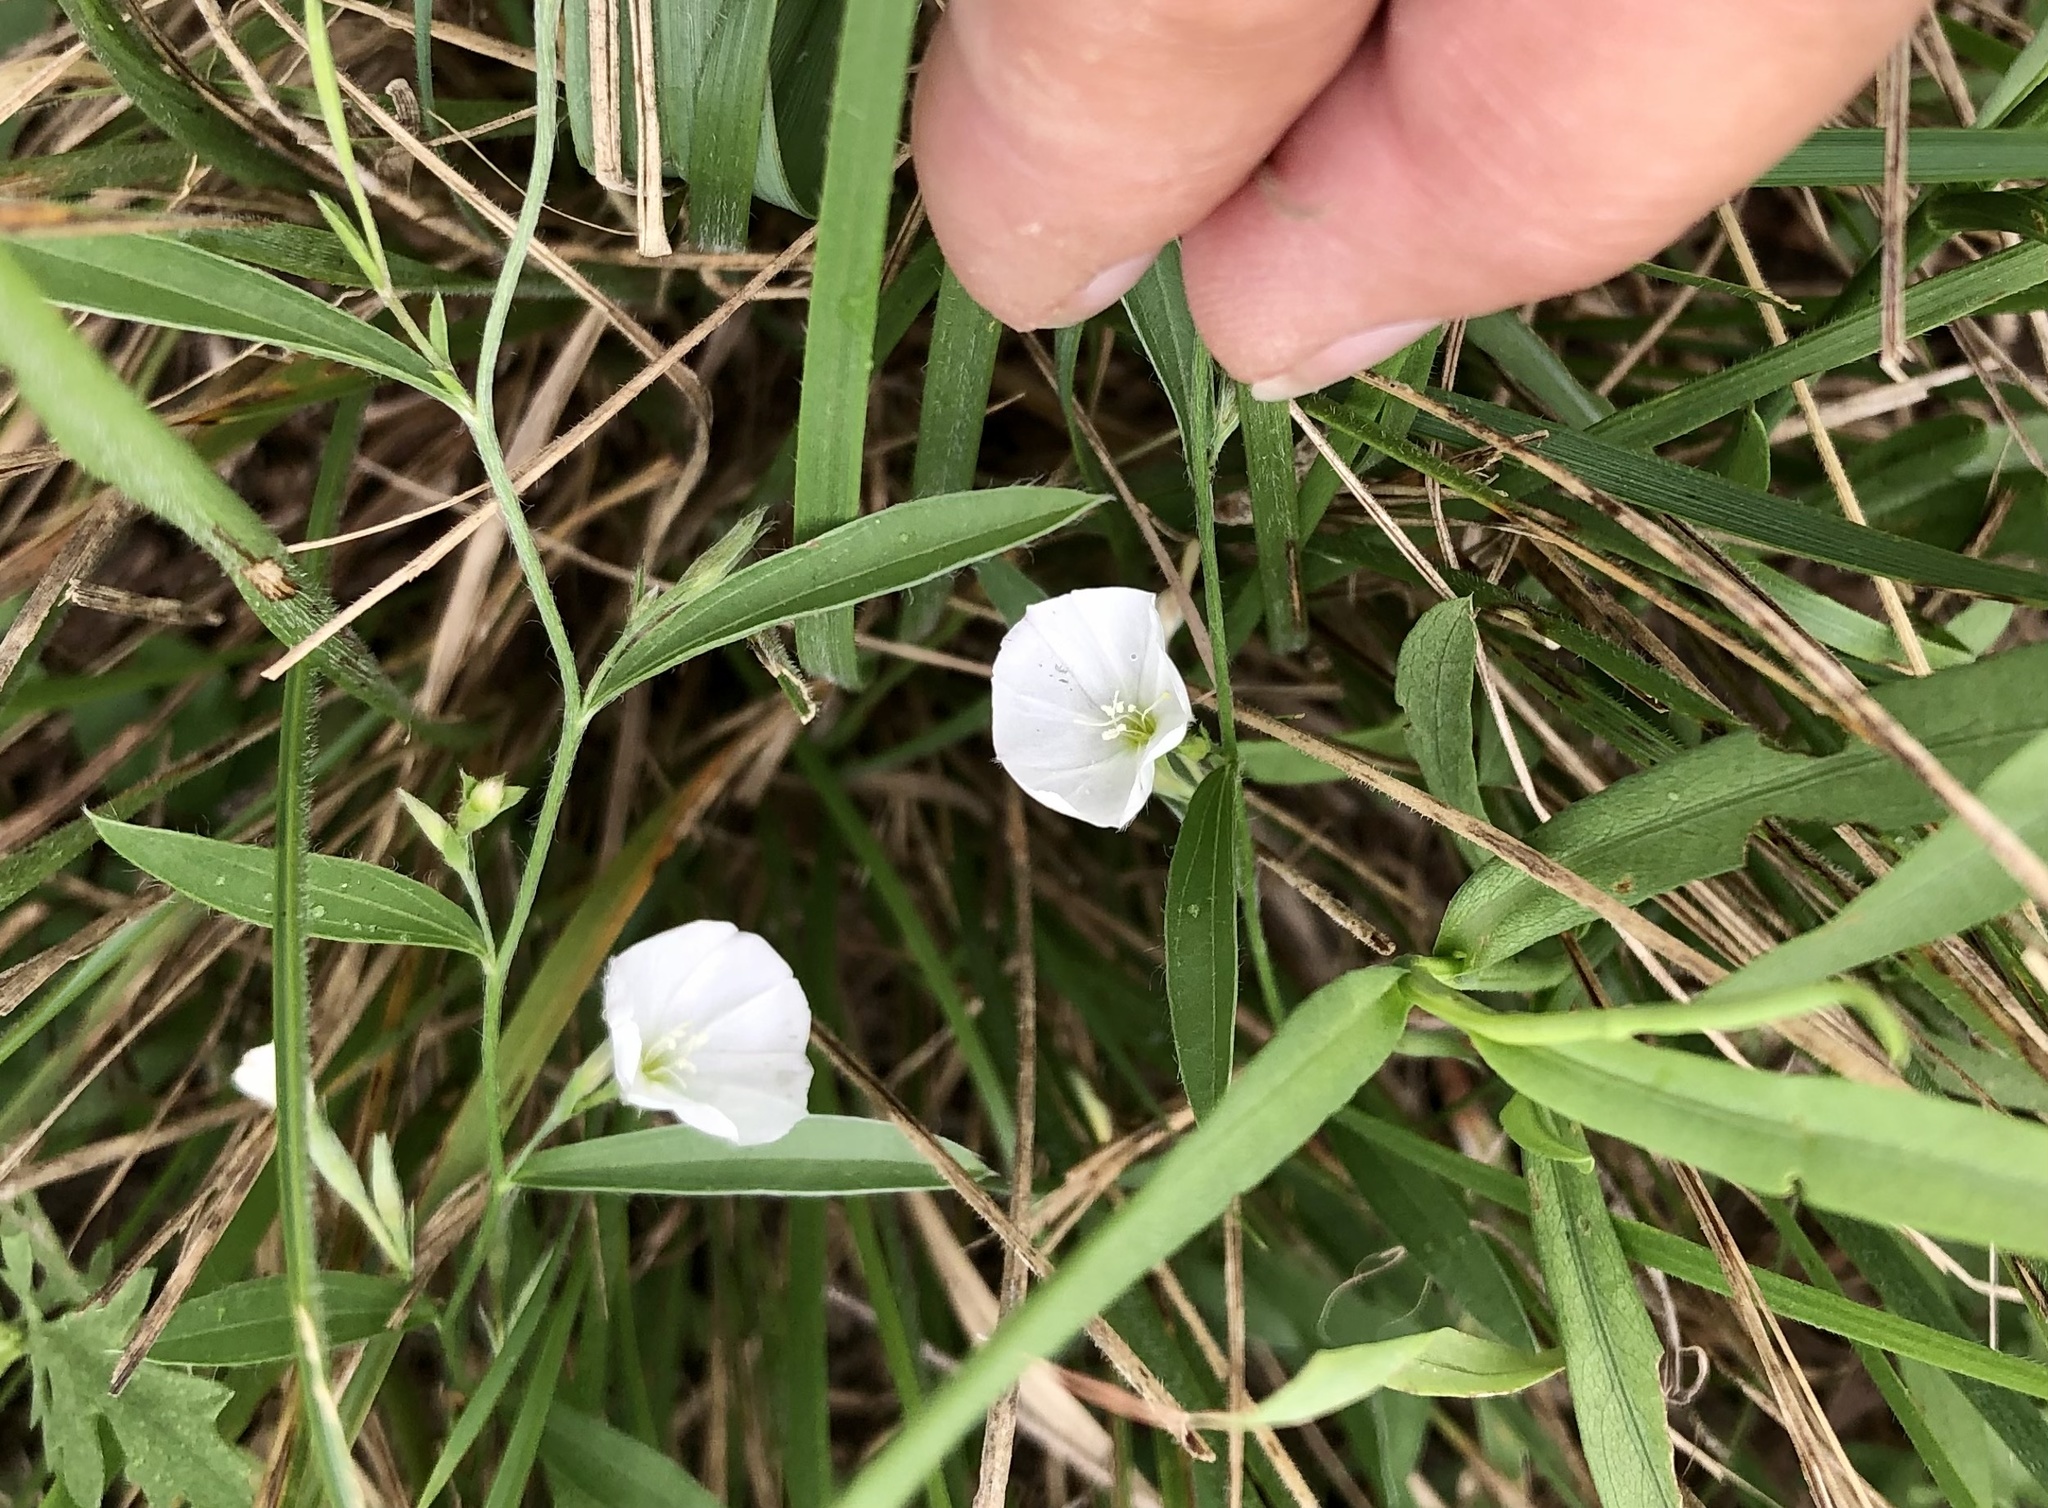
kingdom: Plantae
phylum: Tracheophyta
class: Magnoliopsida
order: Solanales
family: Convolvulaceae
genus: Evolvulus
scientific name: Evolvulus sericeus
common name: Blue dots
